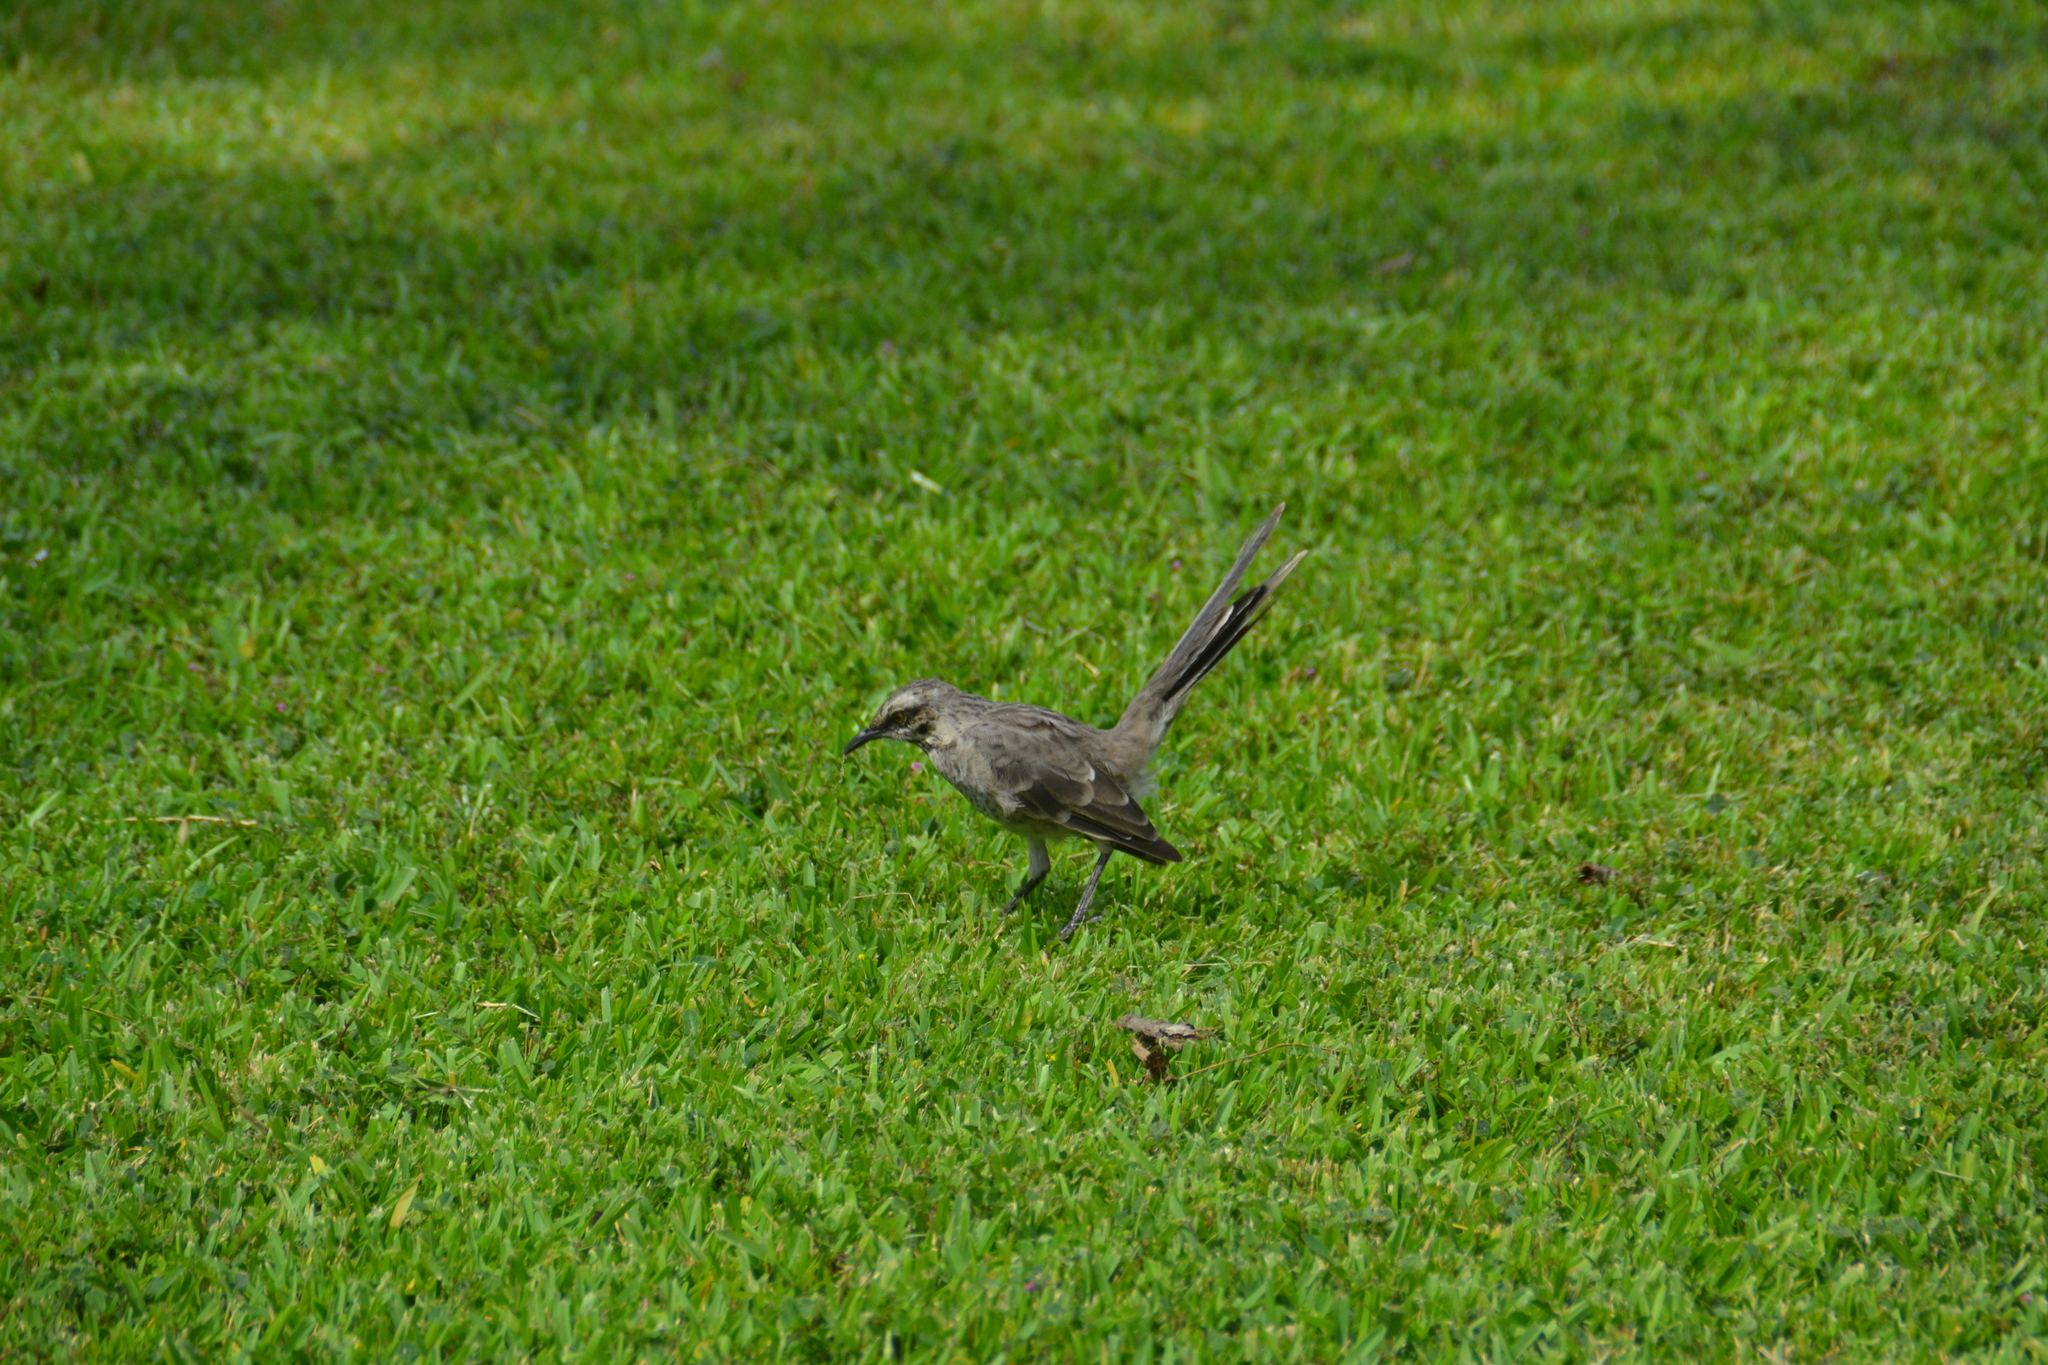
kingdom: Animalia
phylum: Chordata
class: Aves
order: Passeriformes
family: Mimidae
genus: Mimus
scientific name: Mimus longicaudatus
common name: Long-tailed mockingbird
